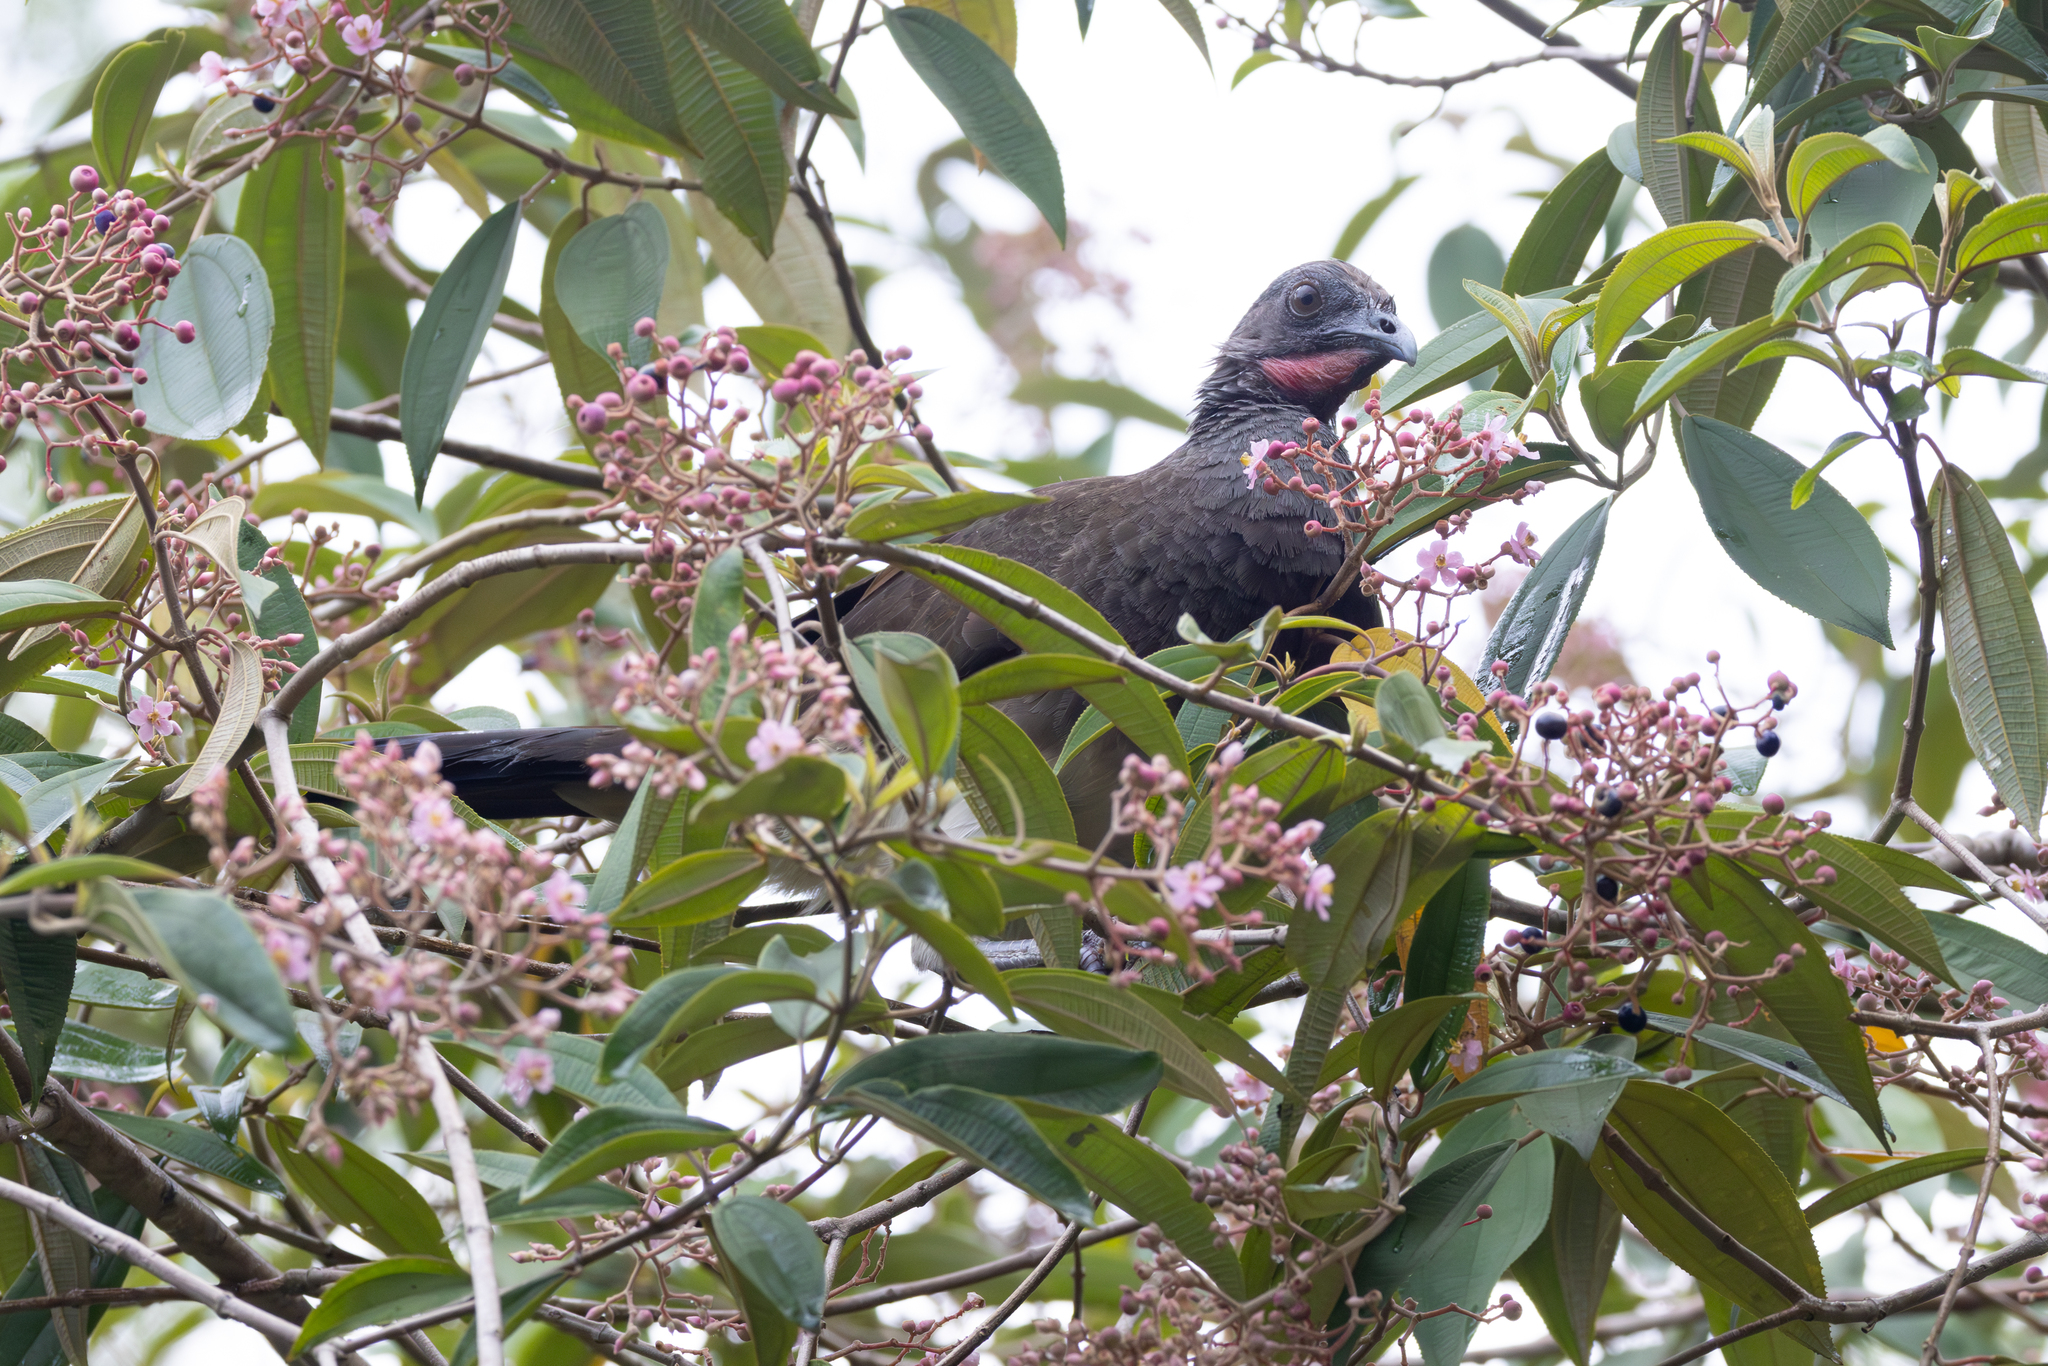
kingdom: Animalia
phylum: Chordata
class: Aves
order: Galliformes
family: Cracidae
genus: Ortalis
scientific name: Ortalis leucogastra
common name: White-bellied chachalaca
